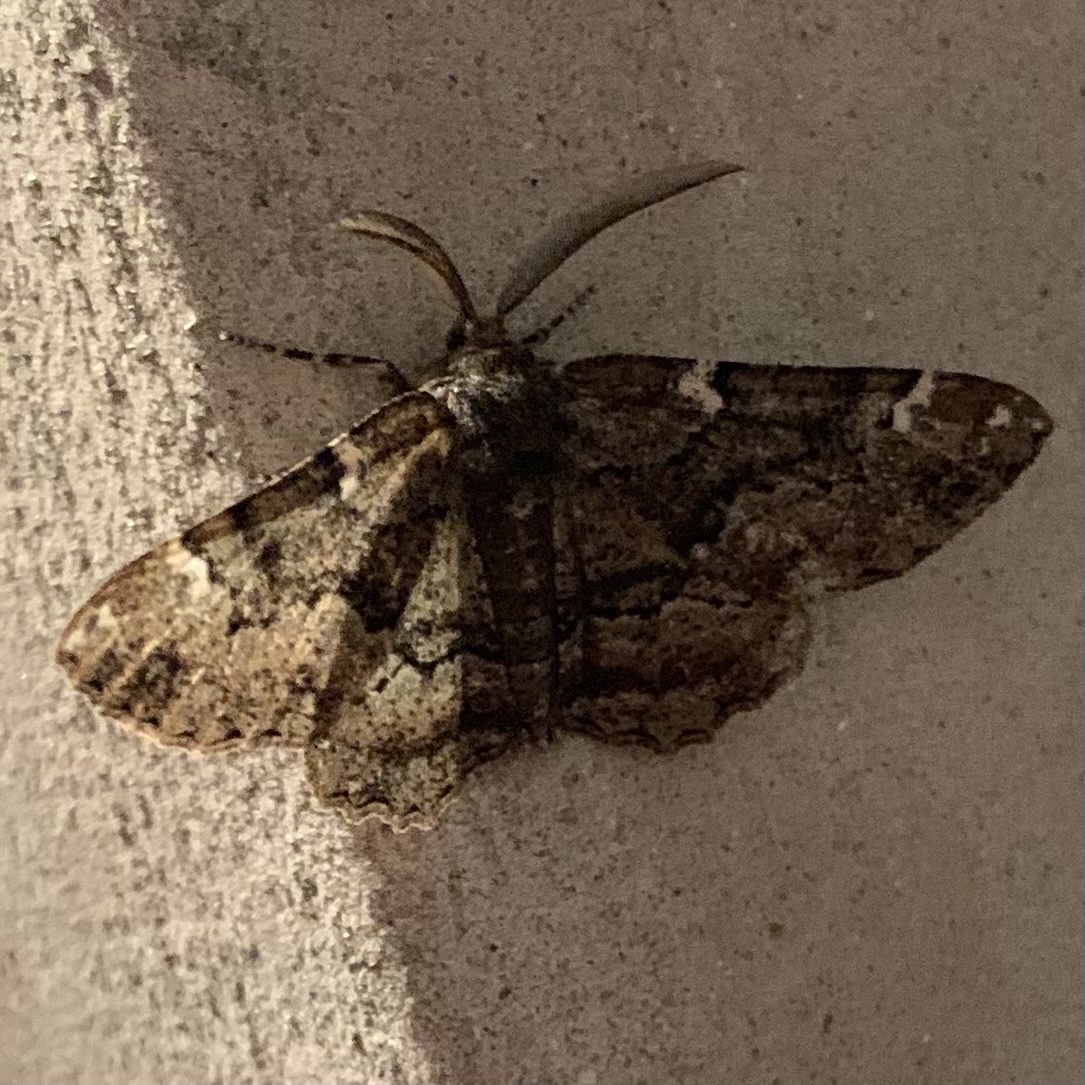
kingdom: Animalia
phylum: Arthropoda
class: Insecta
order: Lepidoptera
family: Geometridae
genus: Phaeoura
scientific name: Phaeoura quernaria
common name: Oak beauty
